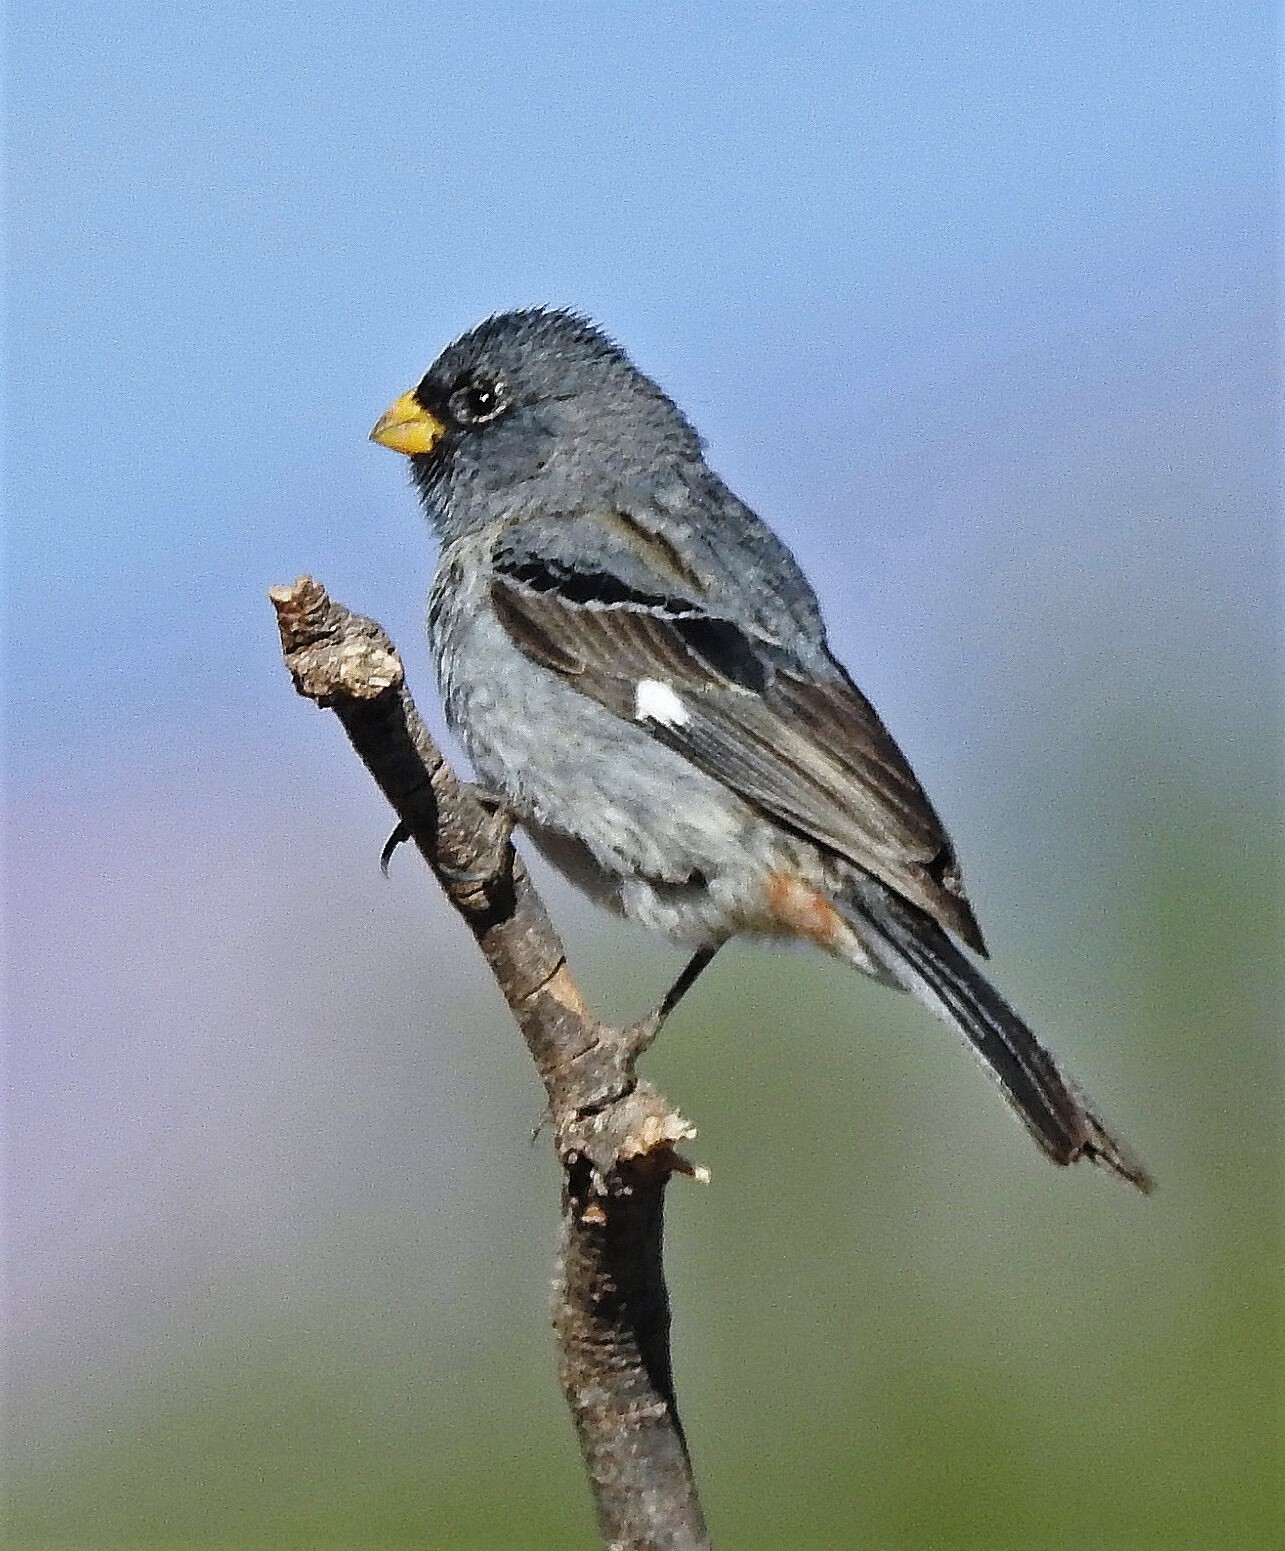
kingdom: Animalia
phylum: Chordata
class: Aves
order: Passeriformes
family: Thraupidae
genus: Catamenia
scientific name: Catamenia analis
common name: Band-tailed seedeater
